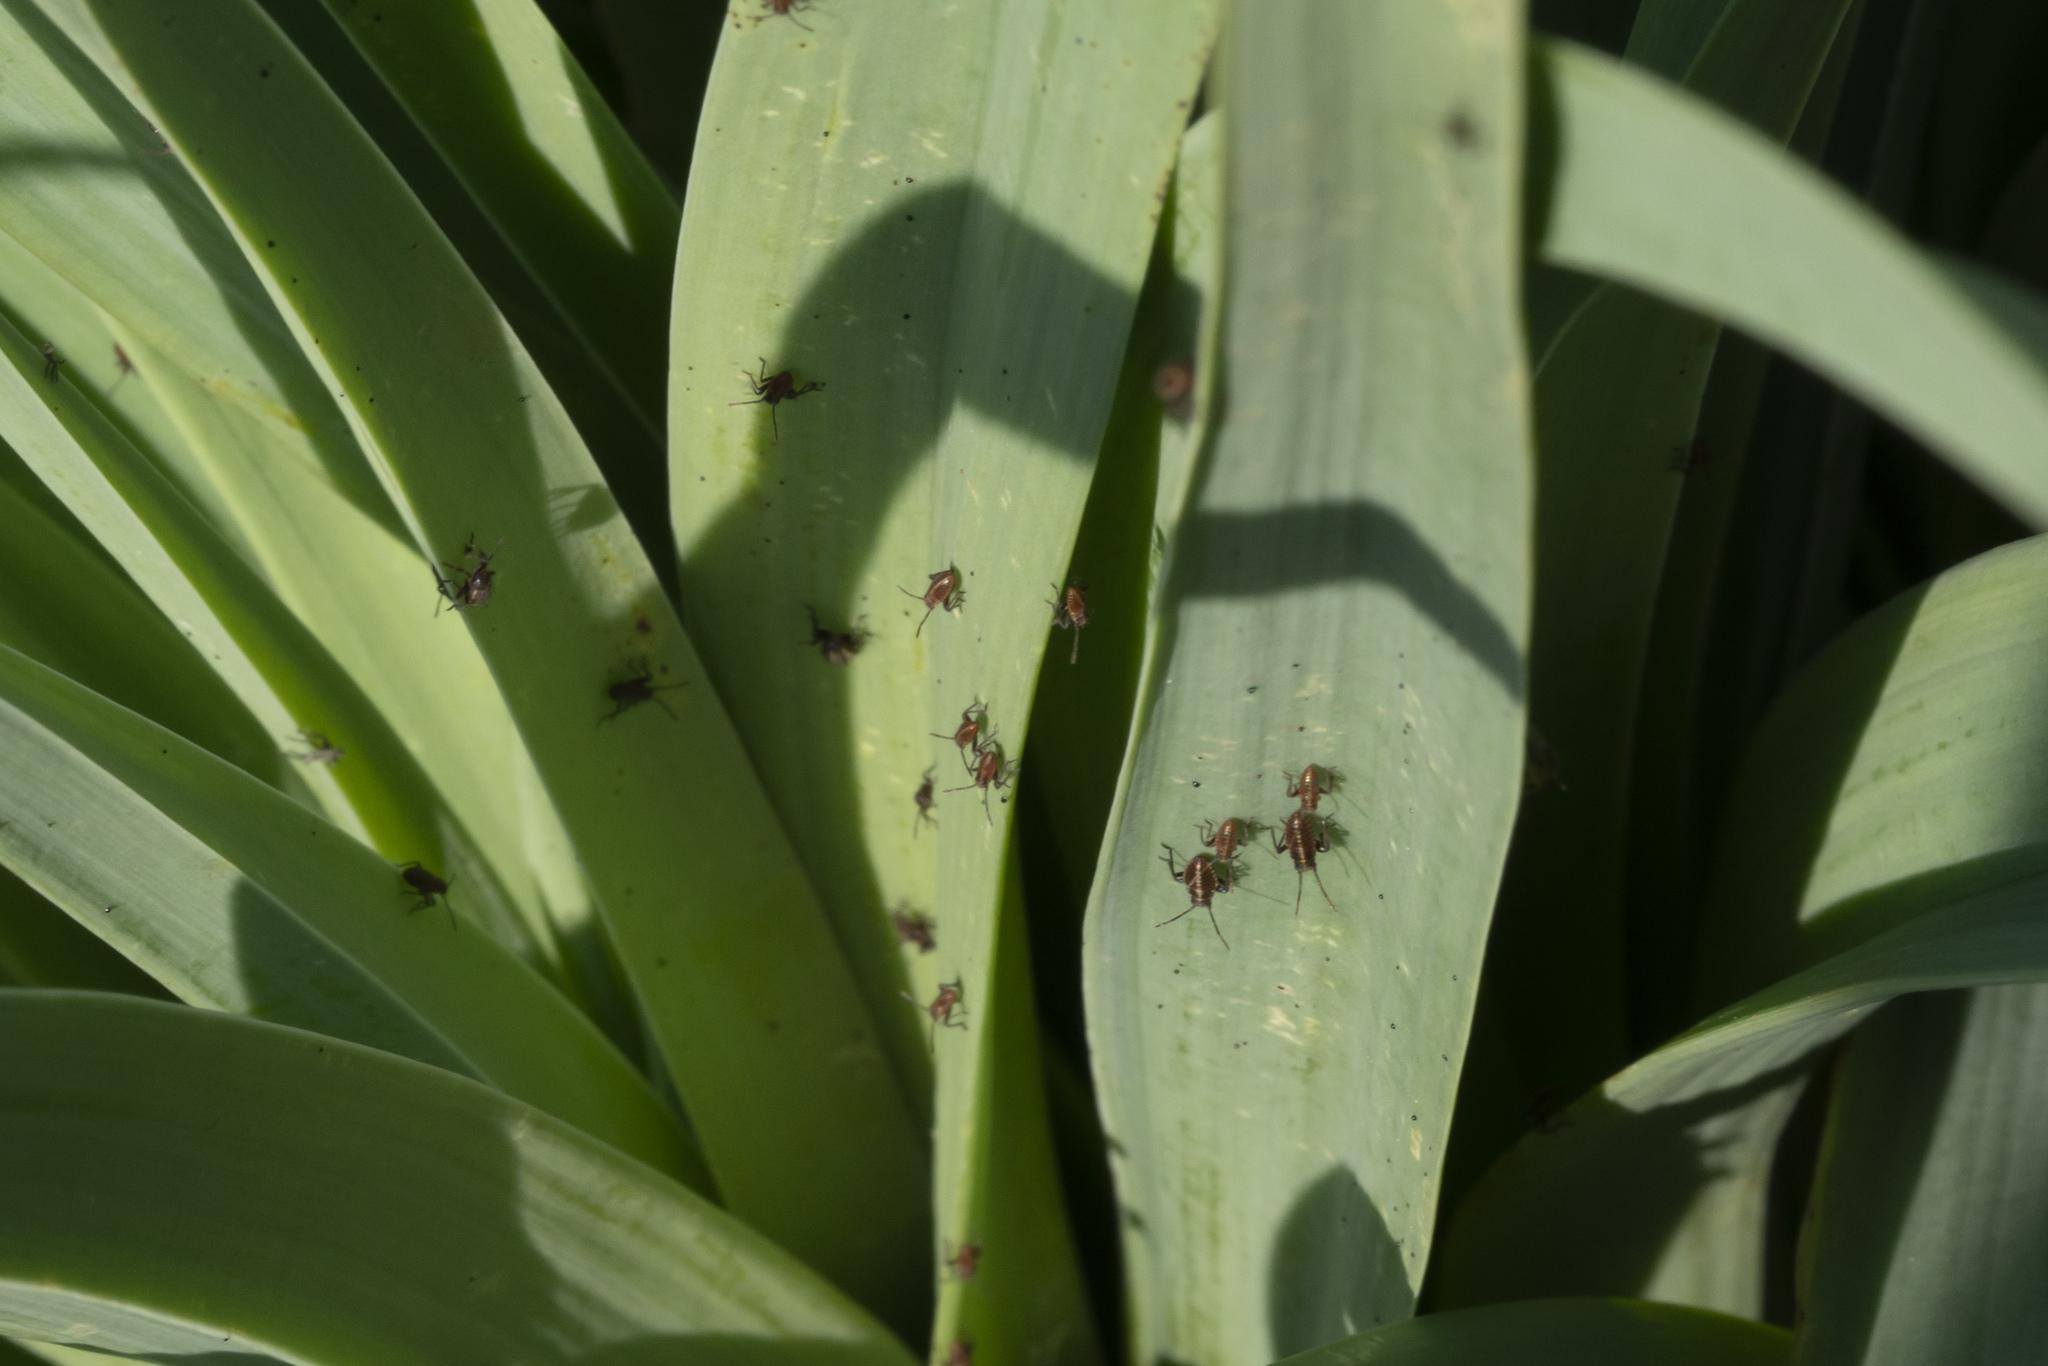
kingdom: Animalia
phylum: Arthropoda
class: Insecta
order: Hemiptera
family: Miridae
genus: Horistus
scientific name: Horistus infuscatus
